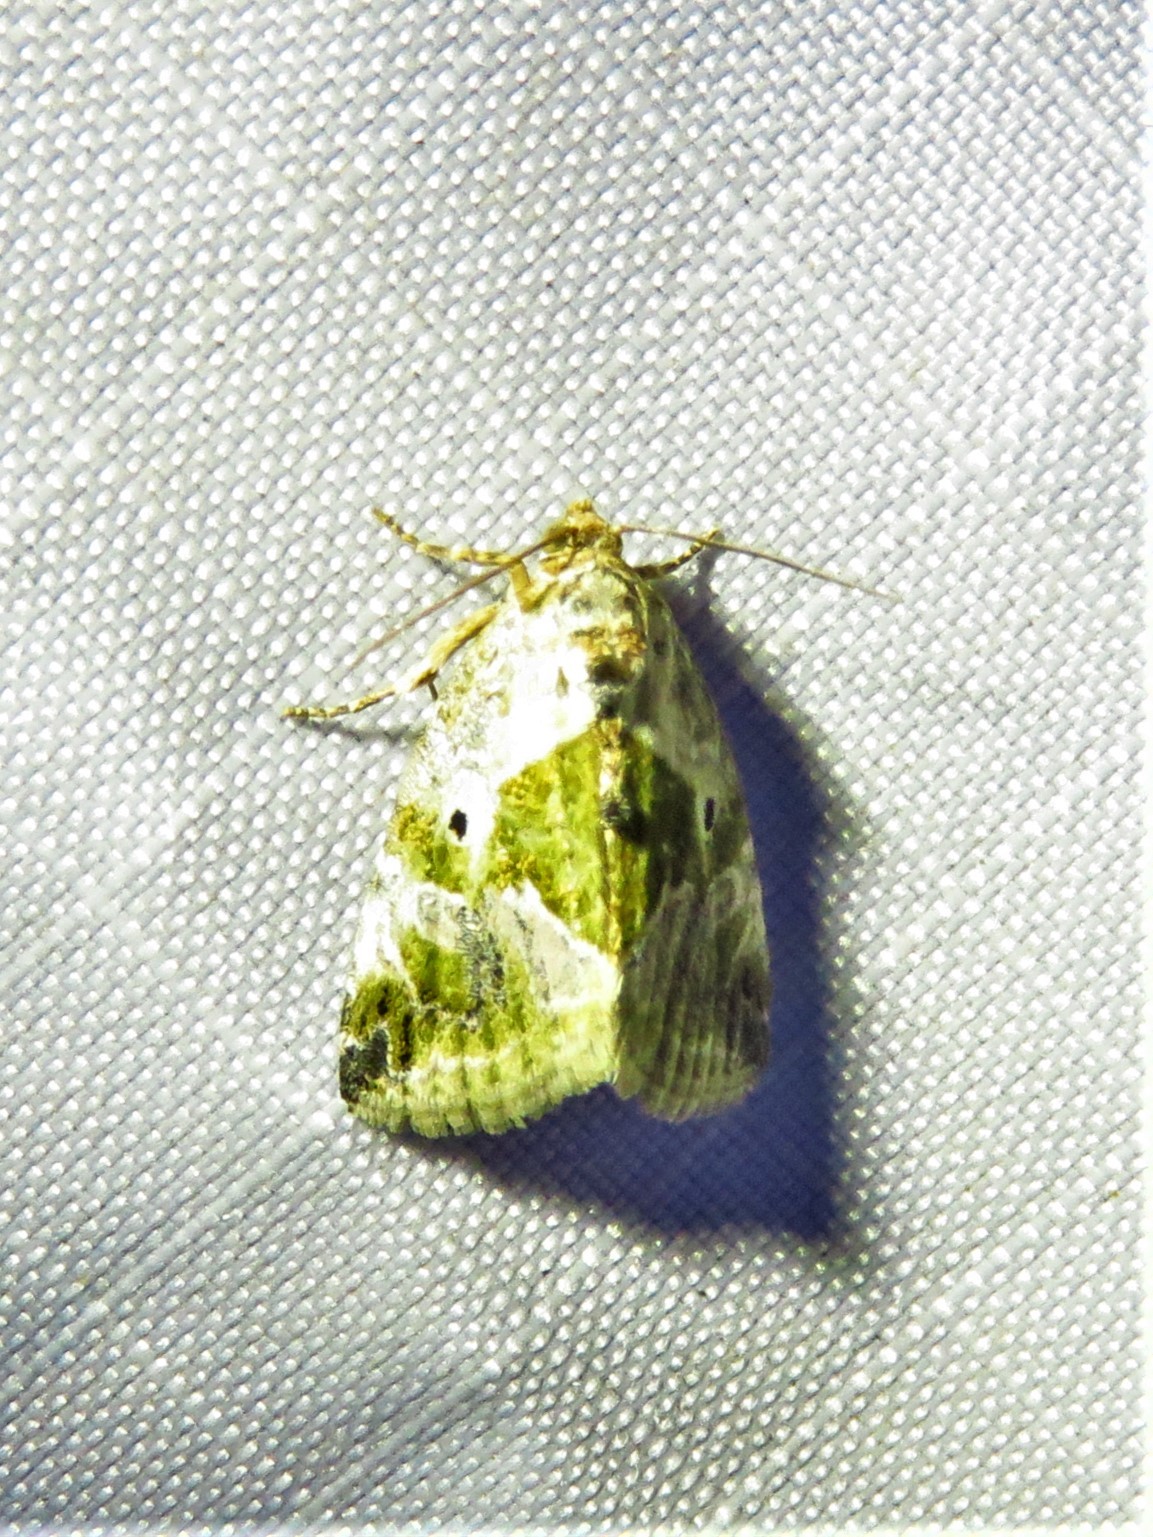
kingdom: Animalia
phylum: Arthropoda
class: Insecta
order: Lepidoptera
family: Noctuidae
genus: Maliattha
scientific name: Maliattha synochitis
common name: Black-dotted glyph
